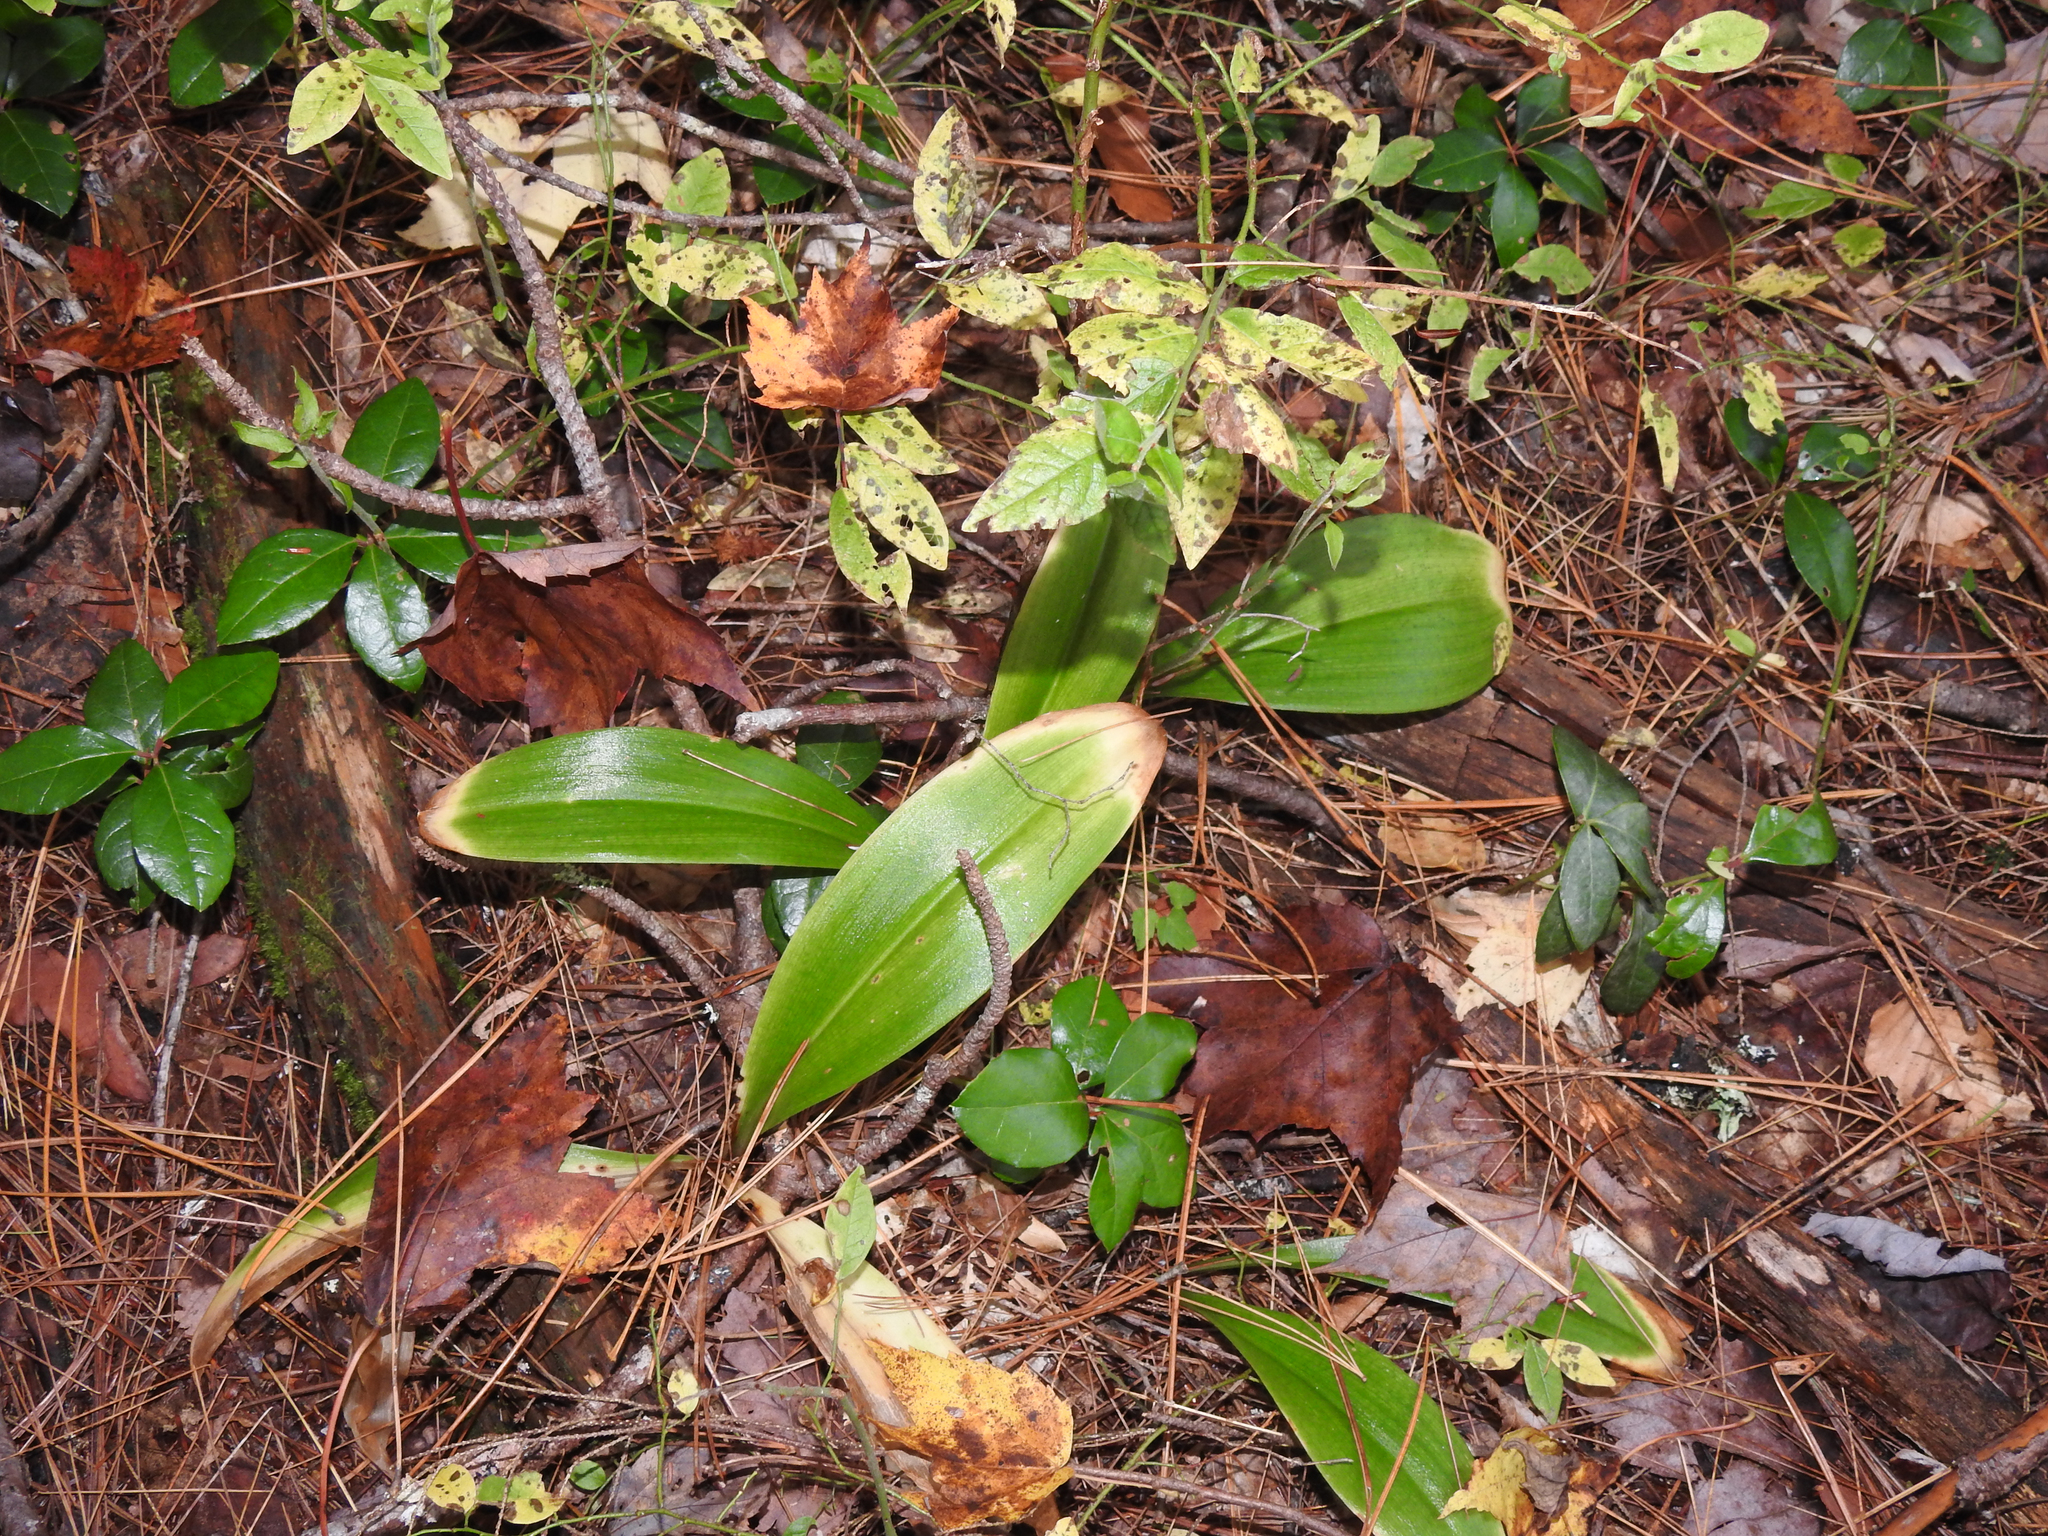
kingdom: Plantae
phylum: Tracheophyta
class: Liliopsida
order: Liliales
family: Liliaceae
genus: Clintonia
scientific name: Clintonia borealis
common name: Yellow clintonia
